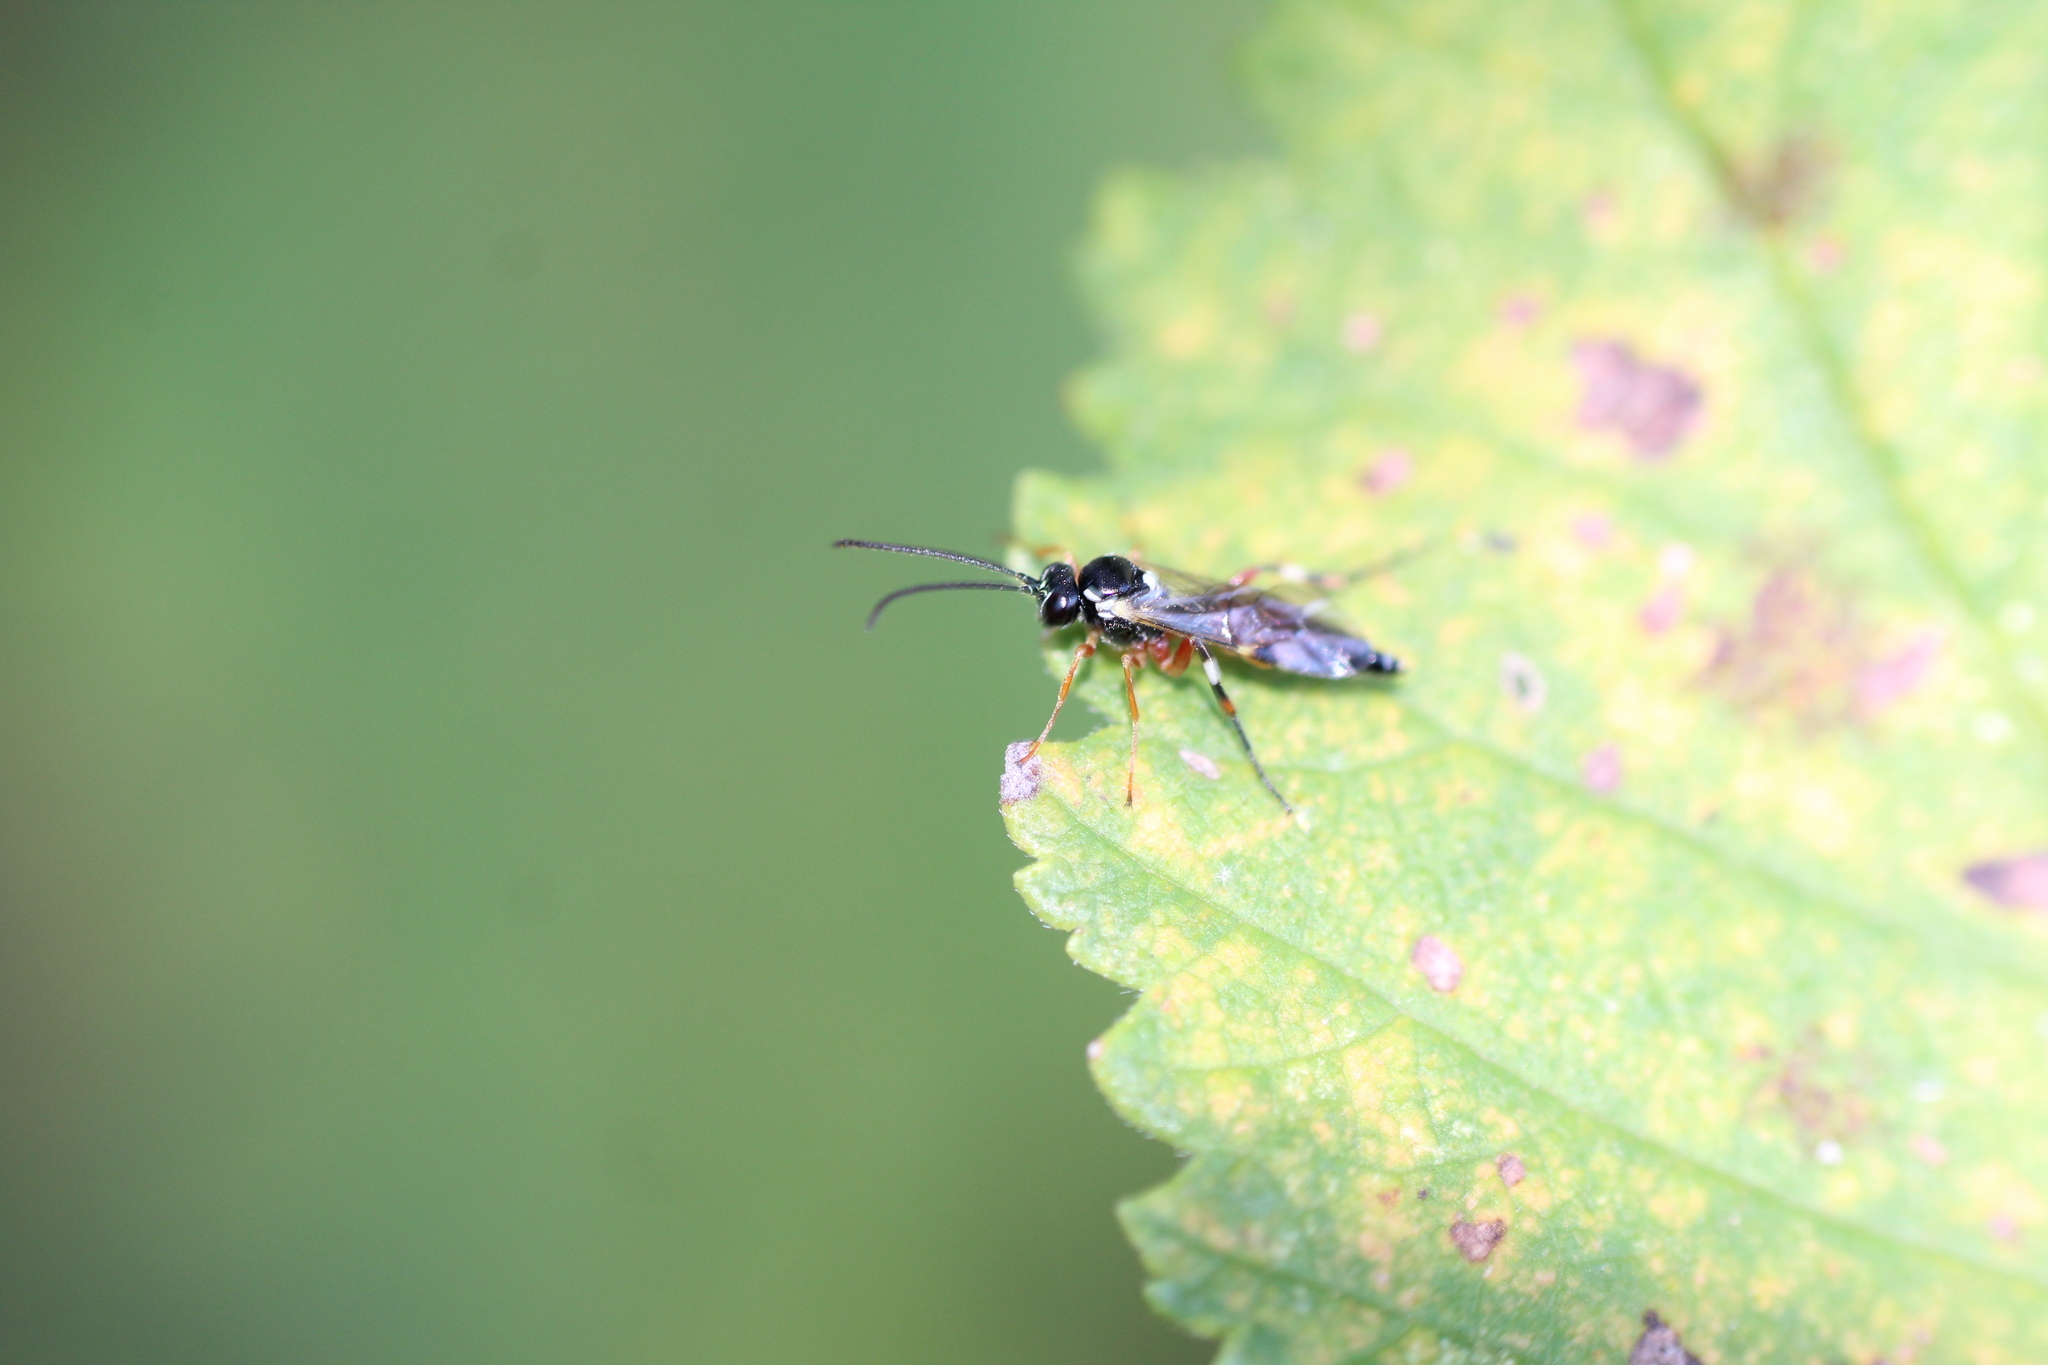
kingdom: Animalia
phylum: Arthropoda
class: Insecta
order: Hymenoptera
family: Ichneumonidae
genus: Diplazon
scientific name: Diplazon laetatorius
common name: Parasitoid wasp
